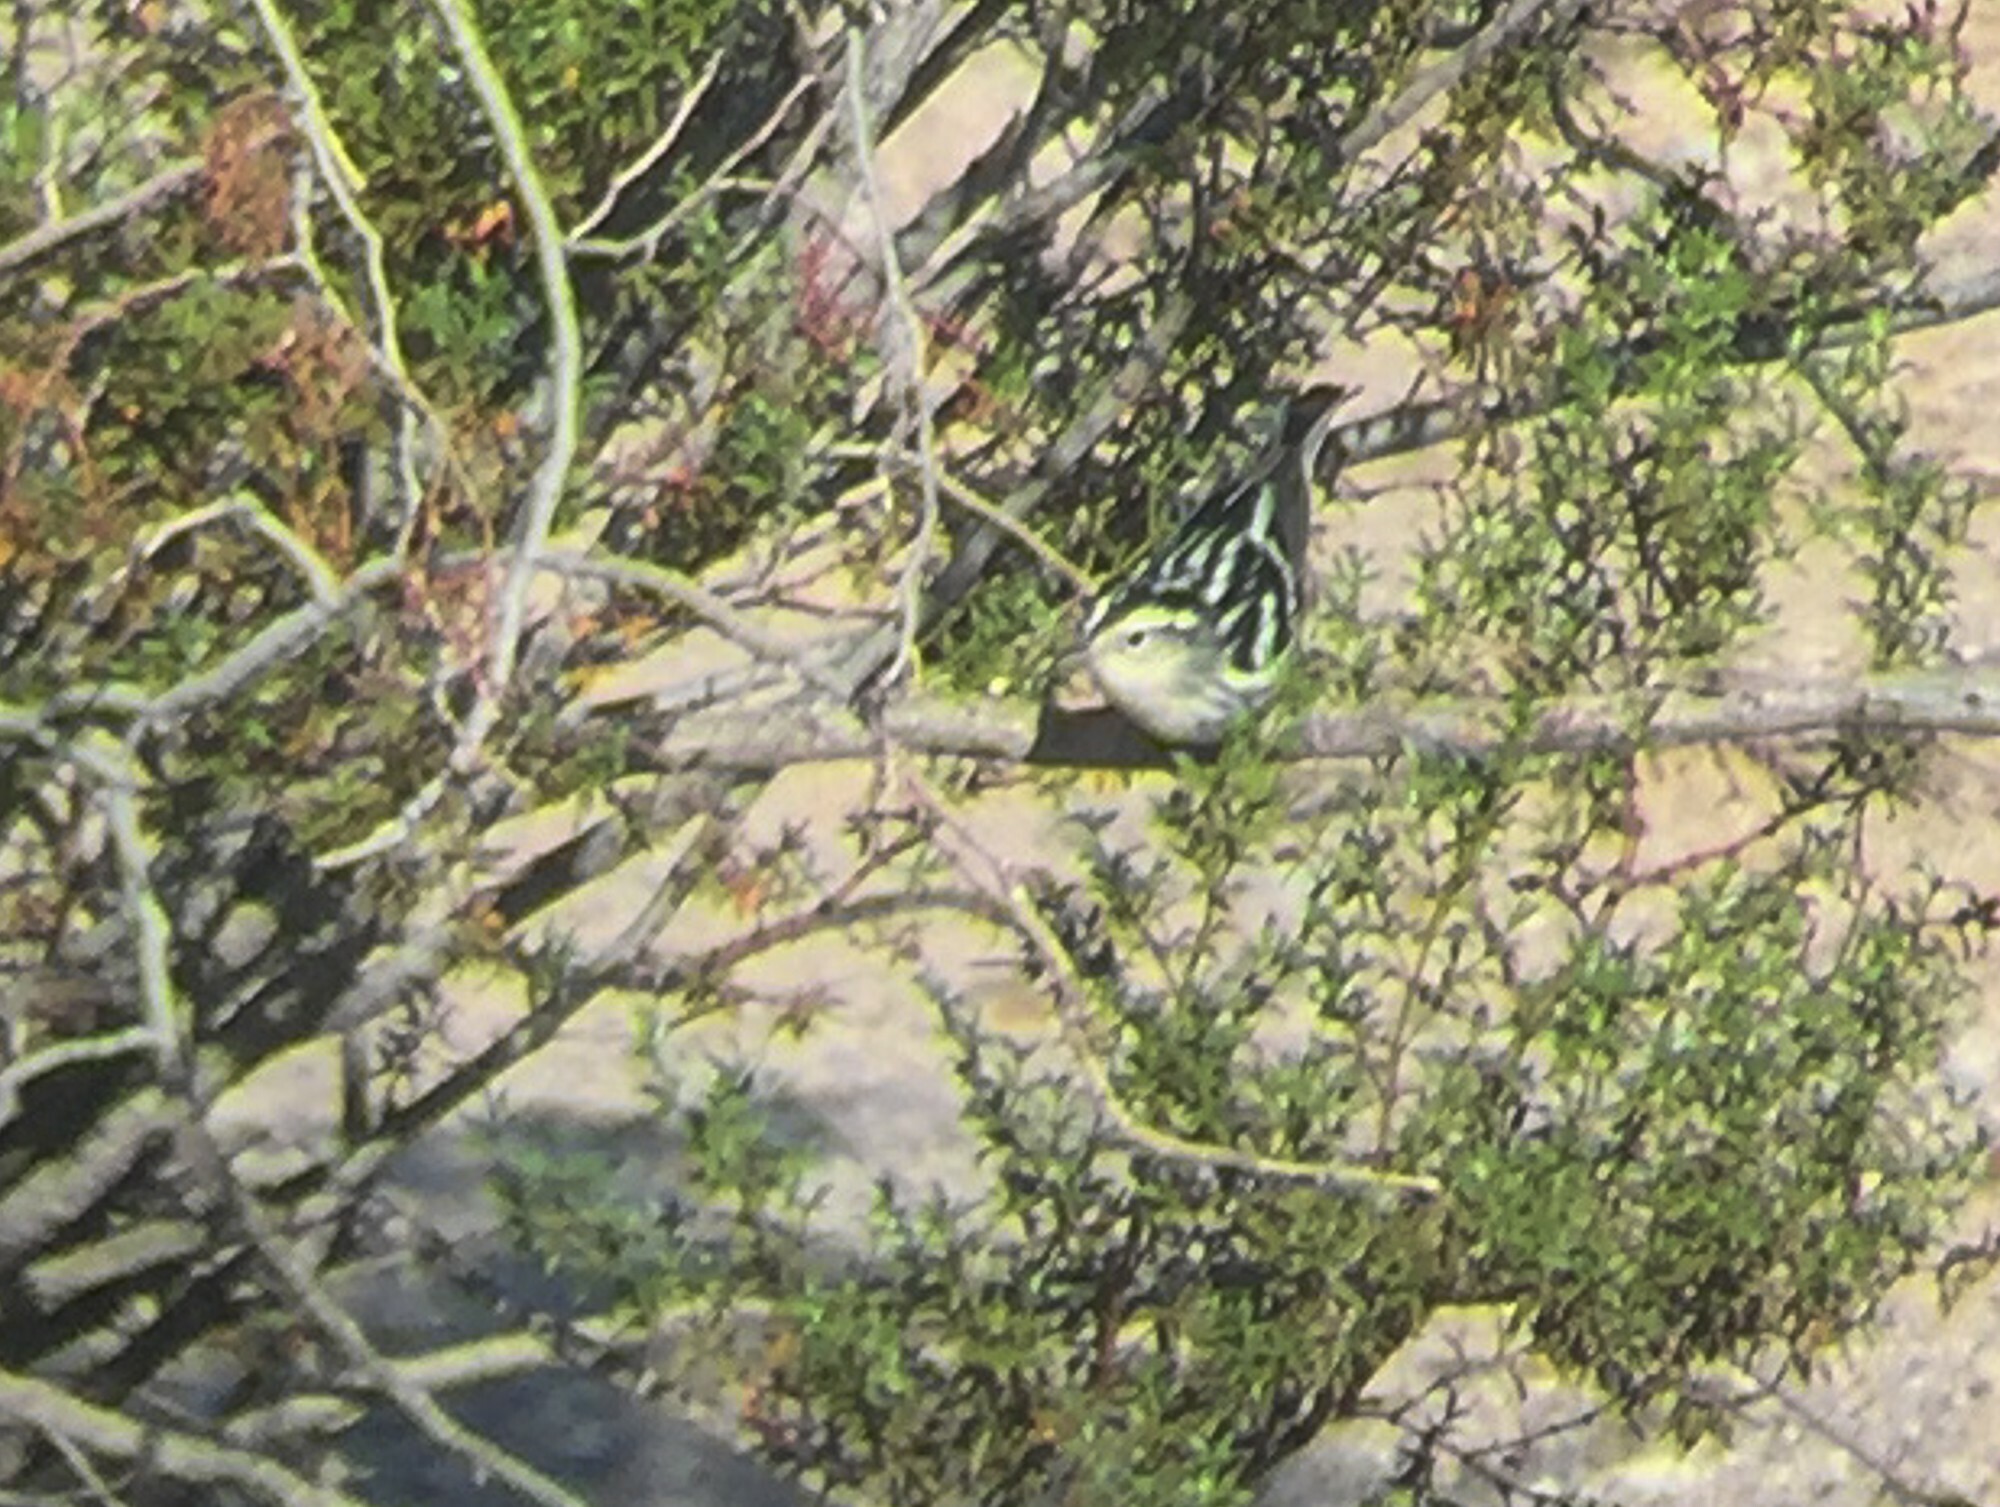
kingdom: Animalia
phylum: Chordata
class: Aves
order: Passeriformes
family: Parulidae
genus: Mniotilta
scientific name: Mniotilta varia
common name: Black-and-white warbler
